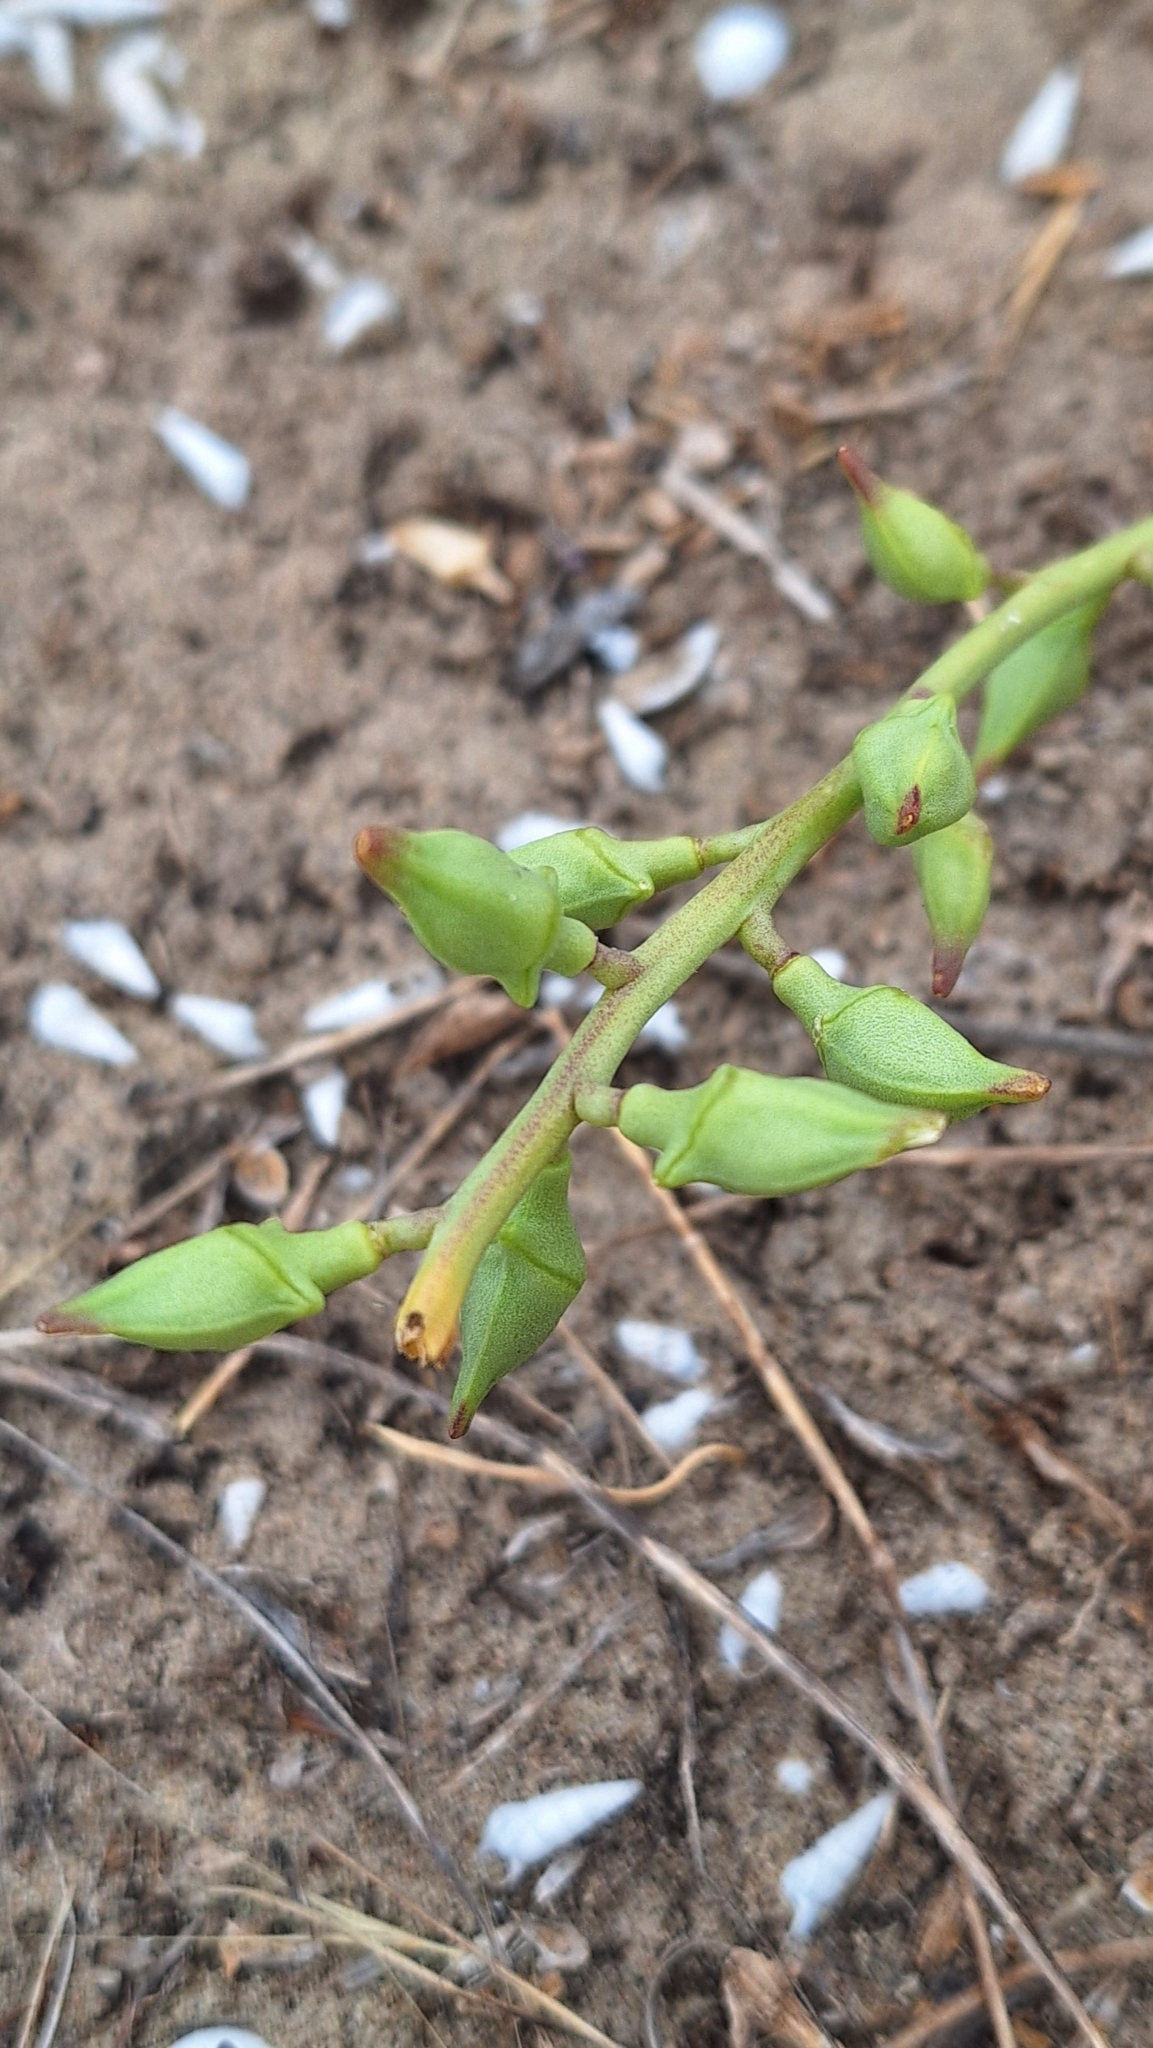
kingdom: Plantae
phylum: Tracheophyta
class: Magnoliopsida
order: Brassicales
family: Brassicaceae
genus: Cakile
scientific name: Cakile maritima
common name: Sea rocket
